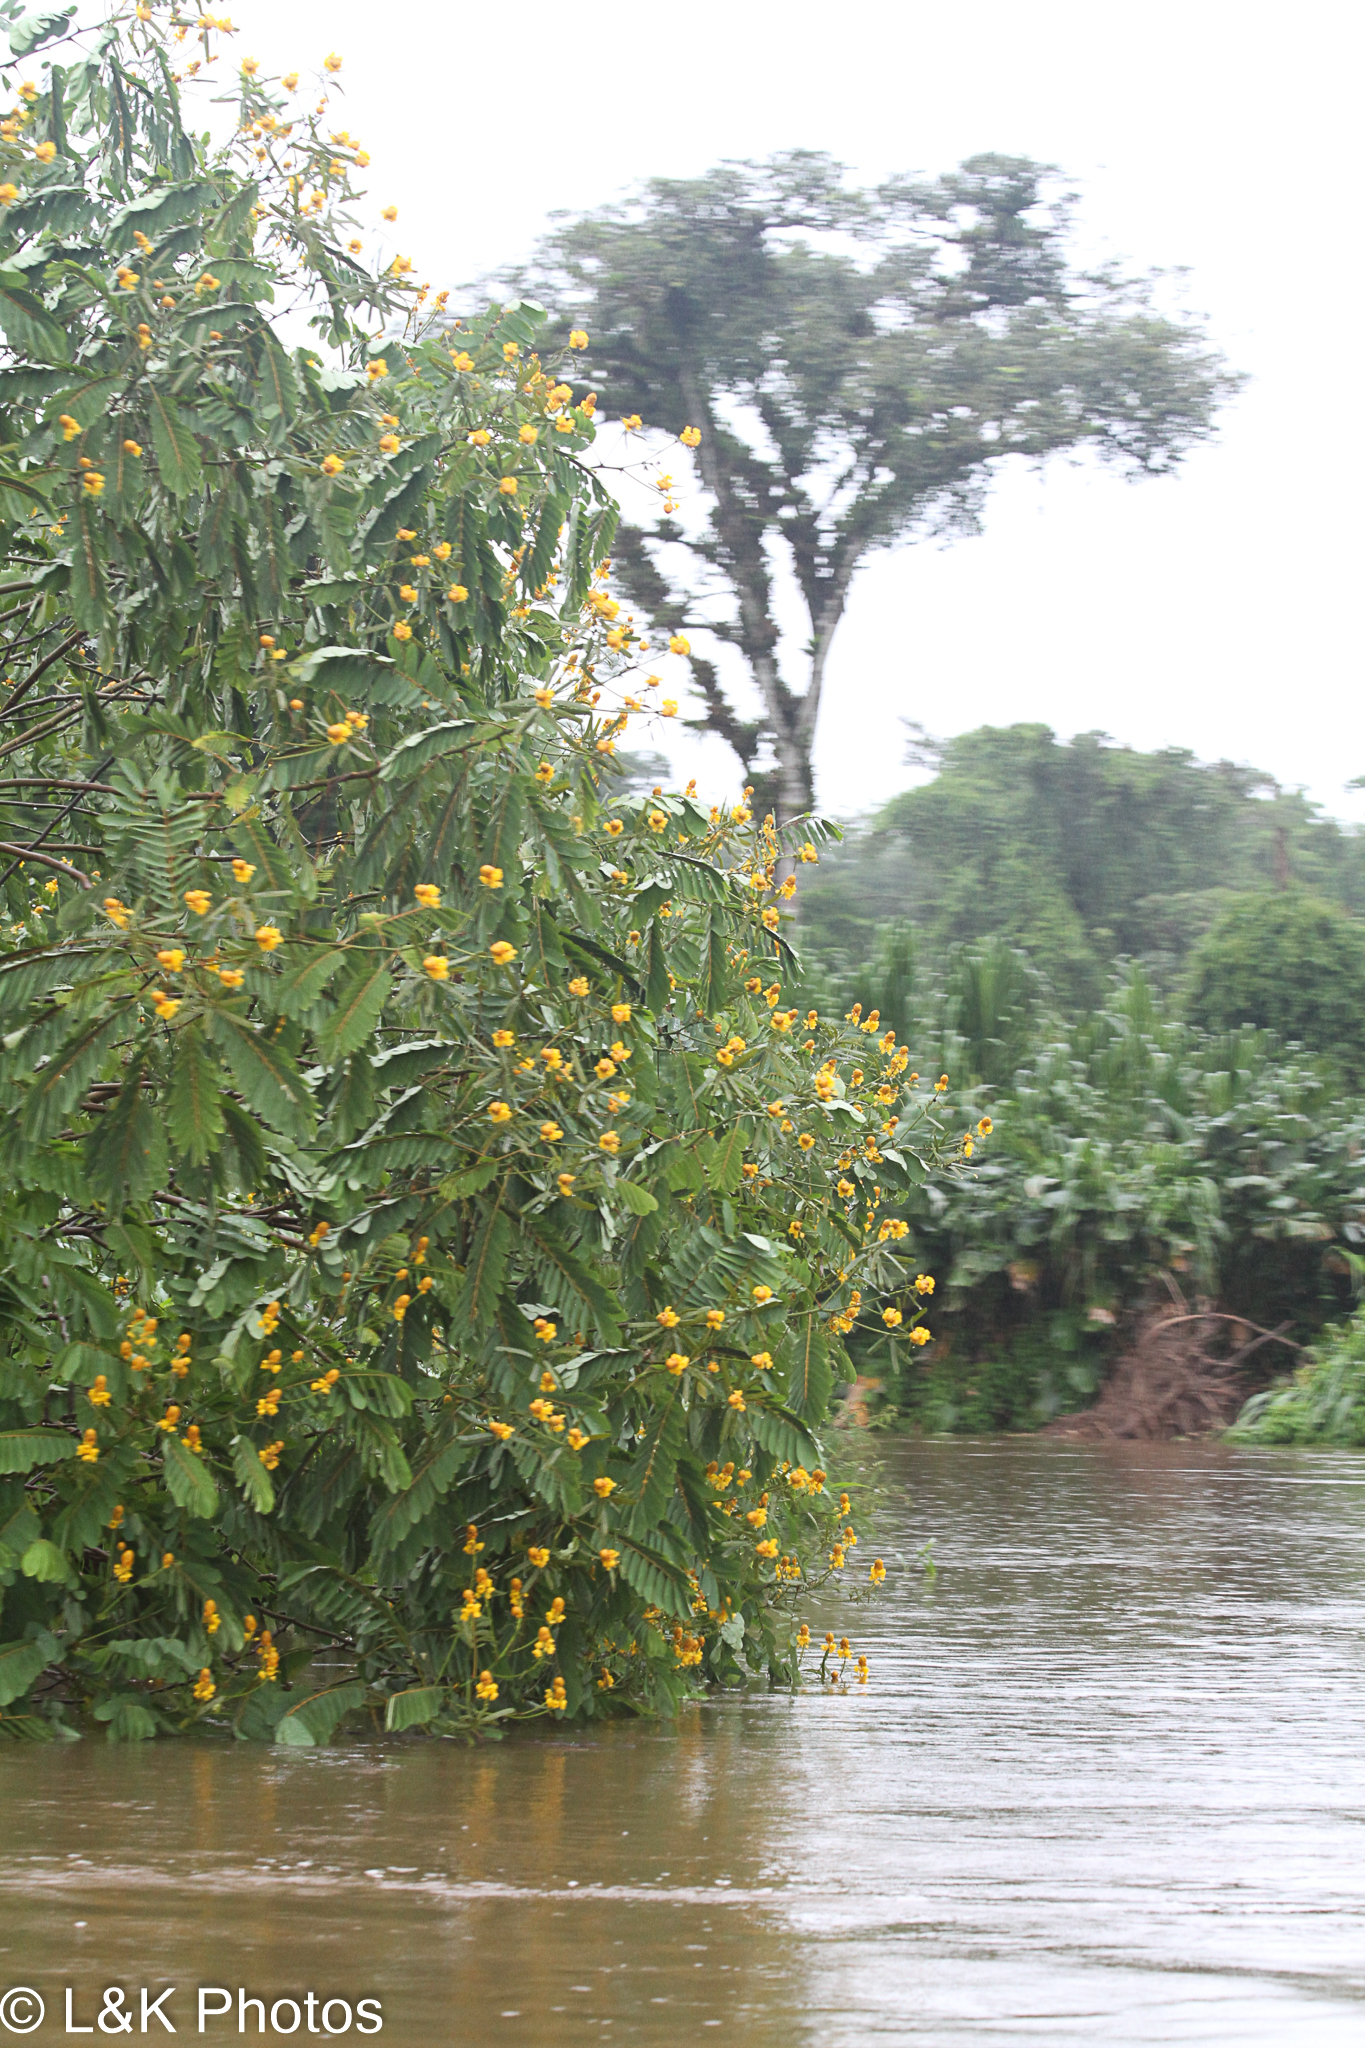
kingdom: Plantae
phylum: Tracheophyta
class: Magnoliopsida
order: Fabales
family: Fabaceae
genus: Senna
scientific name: Senna reticulata
